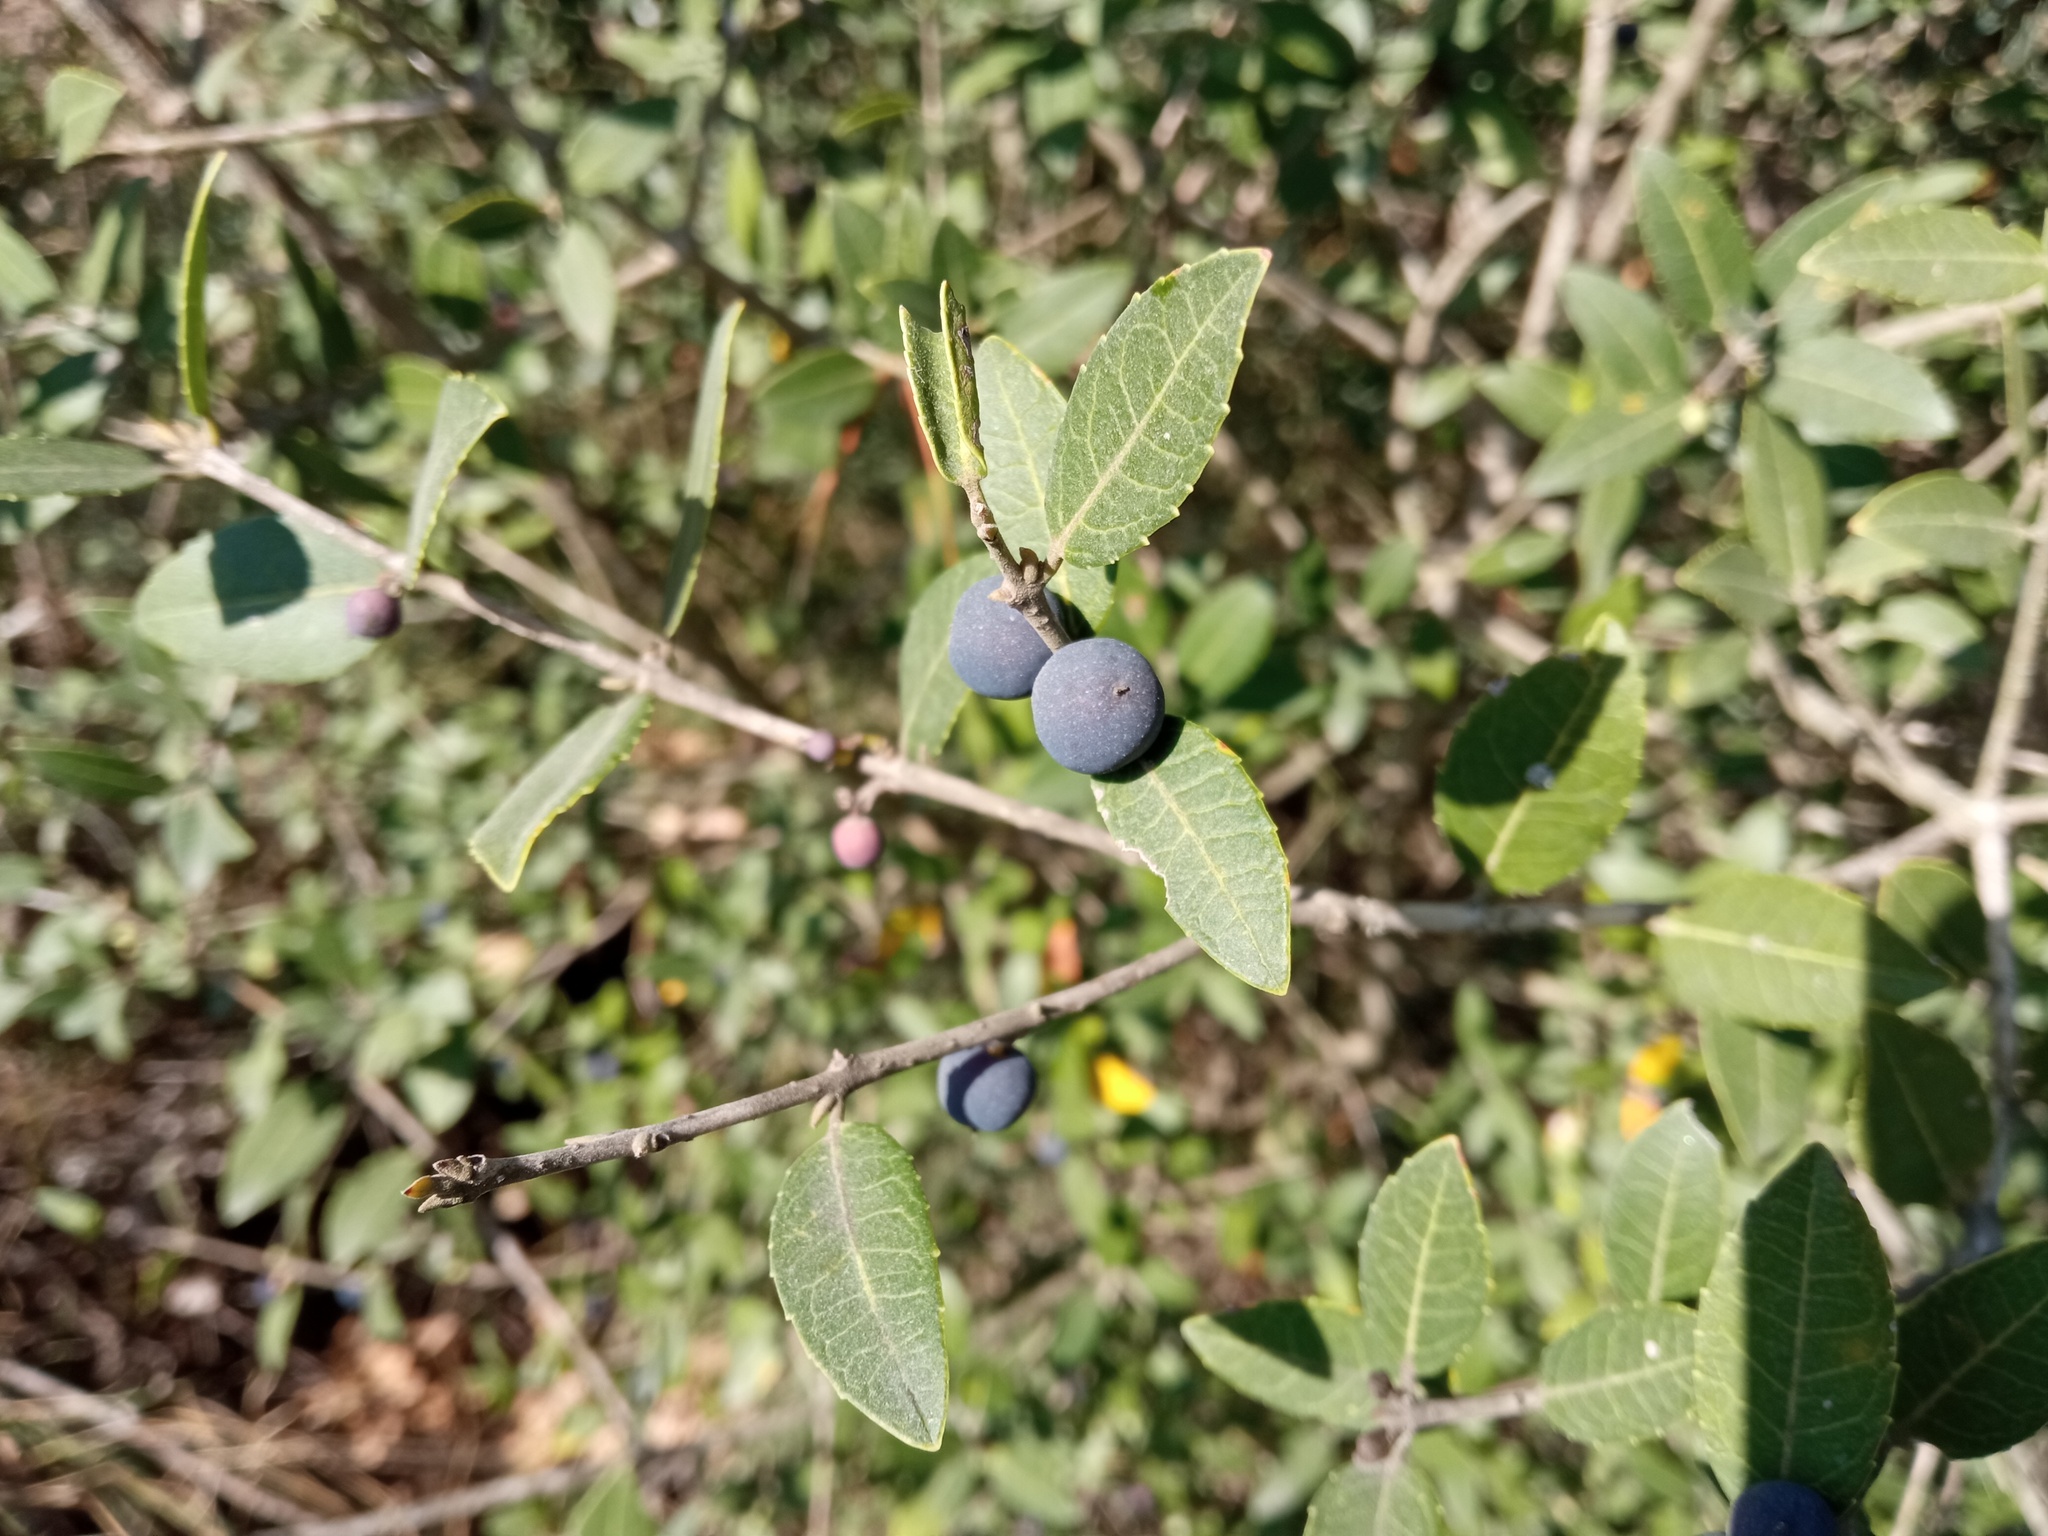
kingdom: Plantae
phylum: Tracheophyta
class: Magnoliopsida
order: Lamiales
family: Oleaceae
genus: Phillyrea
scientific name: Phillyrea latifolia
